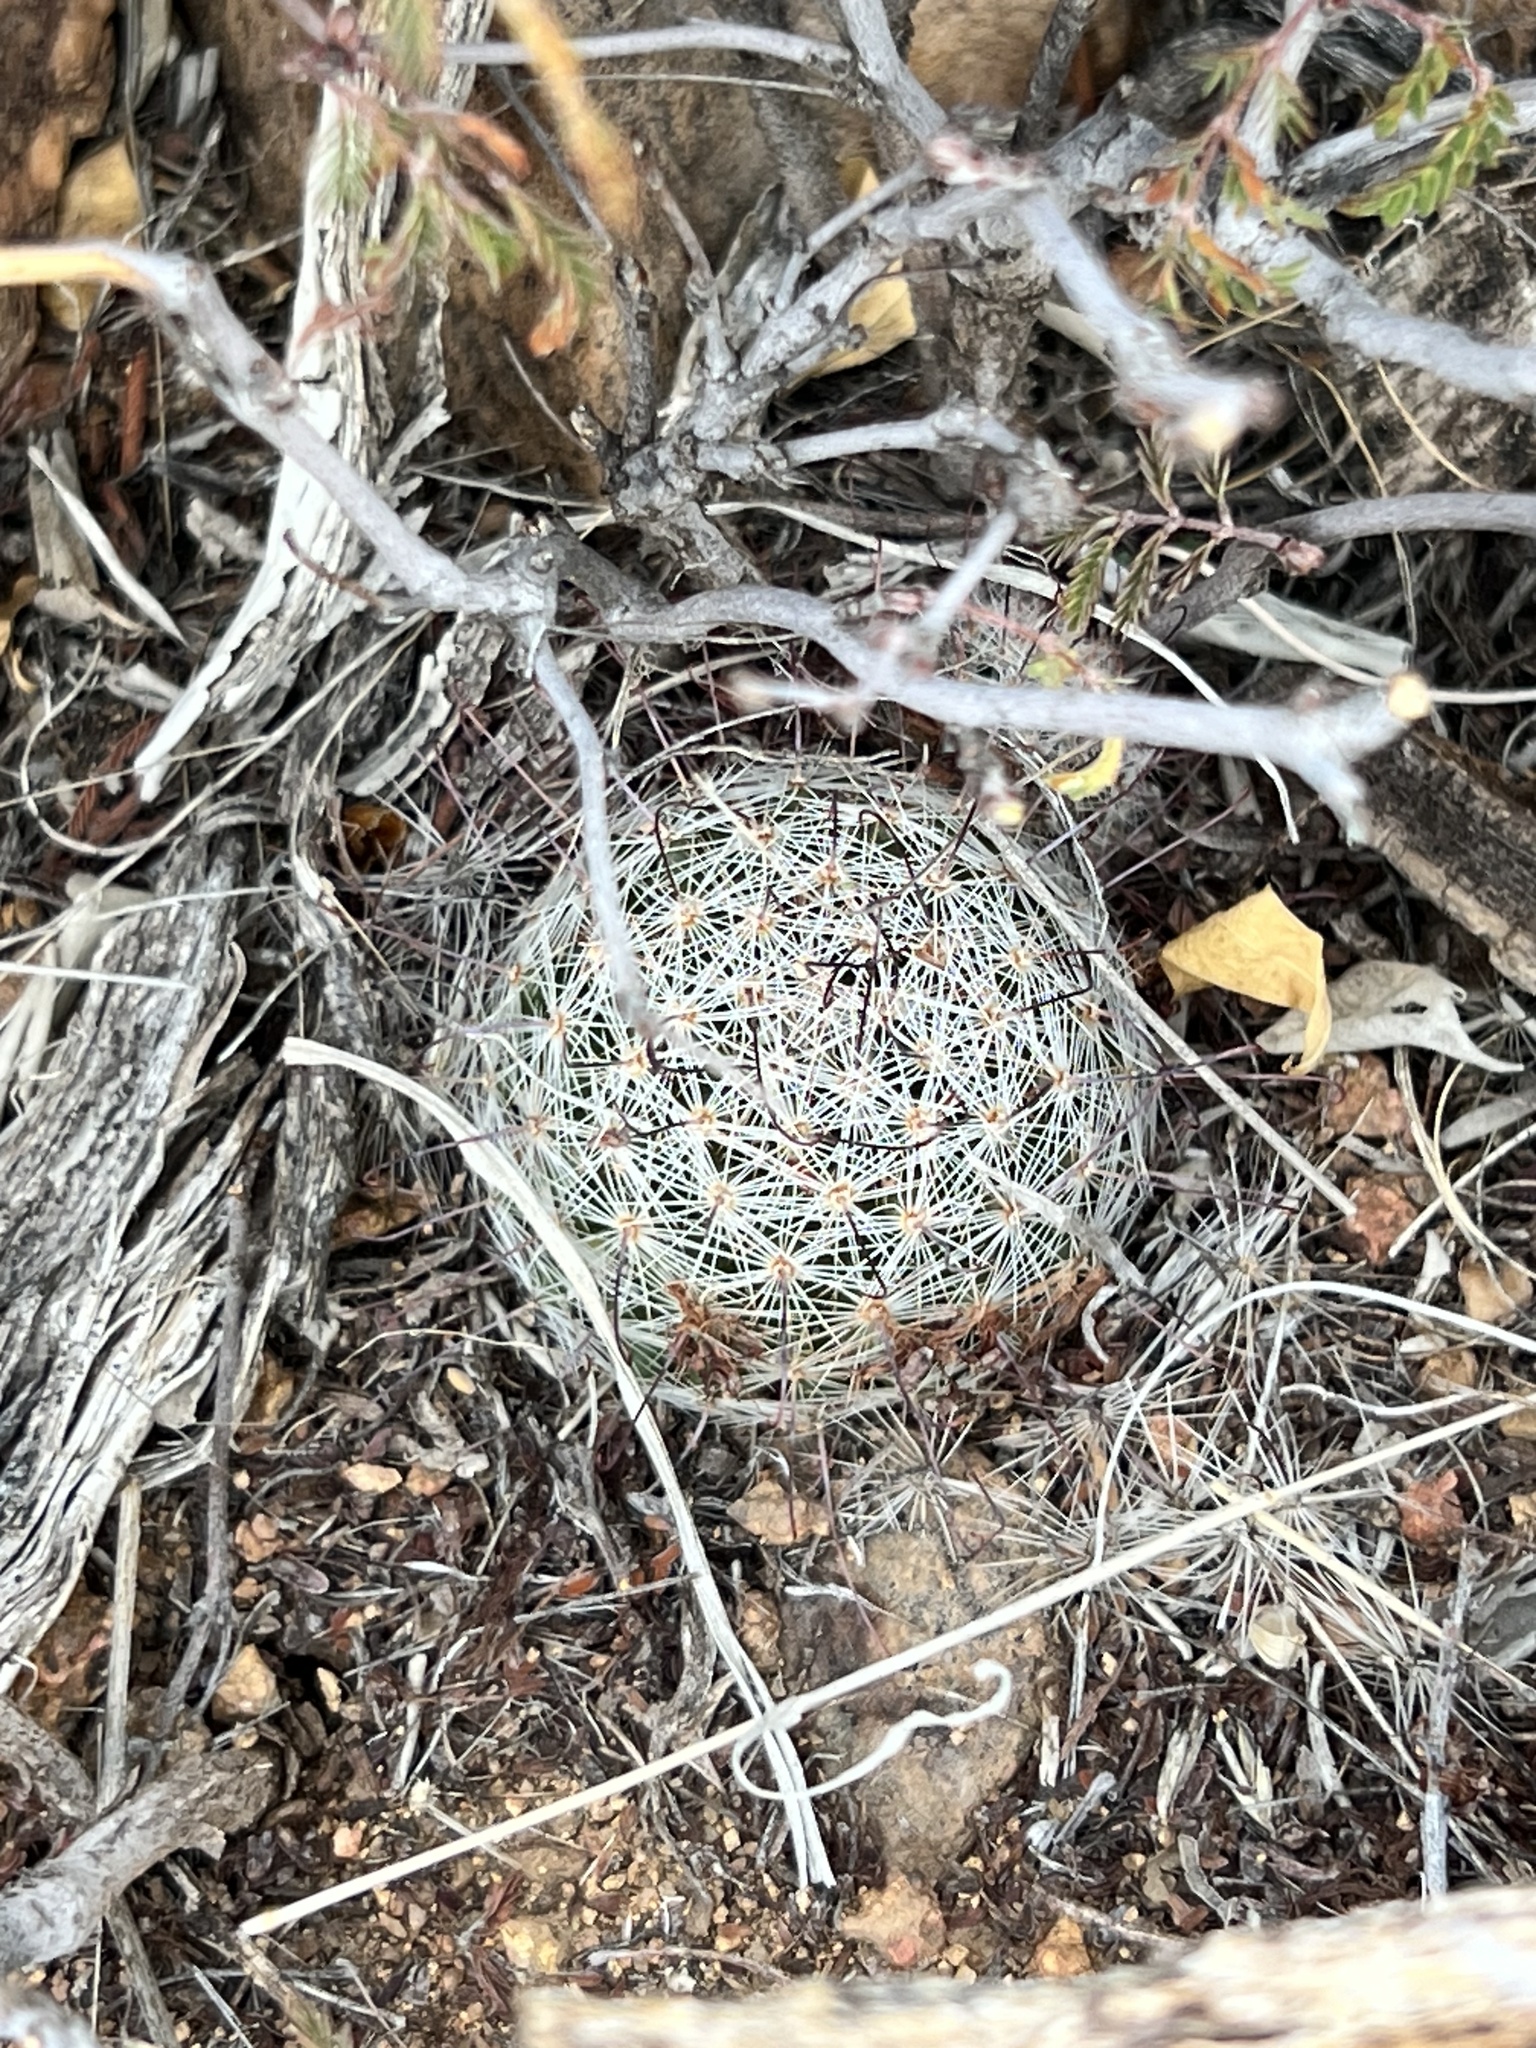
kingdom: Plantae
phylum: Tracheophyta
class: Magnoliopsida
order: Caryophyllales
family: Cactaceae
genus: Cochemiea
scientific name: Cochemiea grahamii
